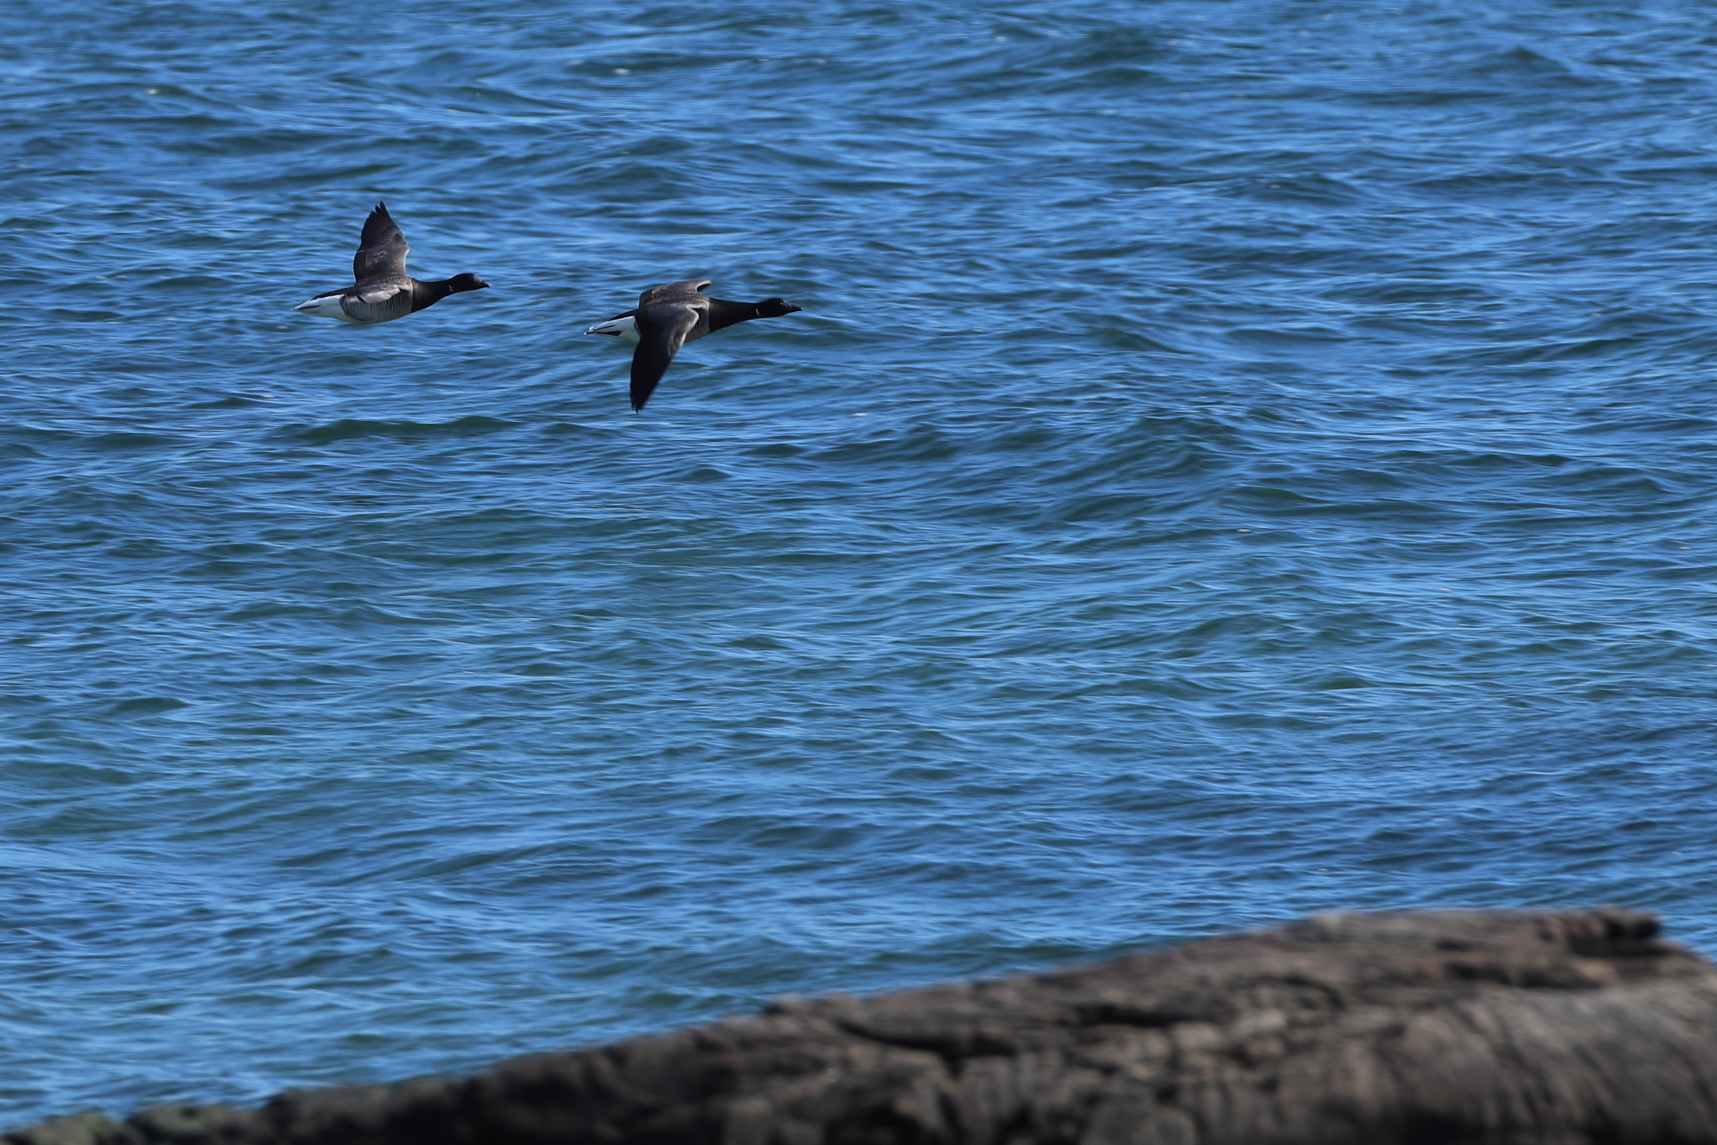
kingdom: Animalia
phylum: Chordata
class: Aves
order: Anseriformes
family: Anatidae
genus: Branta
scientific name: Branta bernicla
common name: Brant goose
